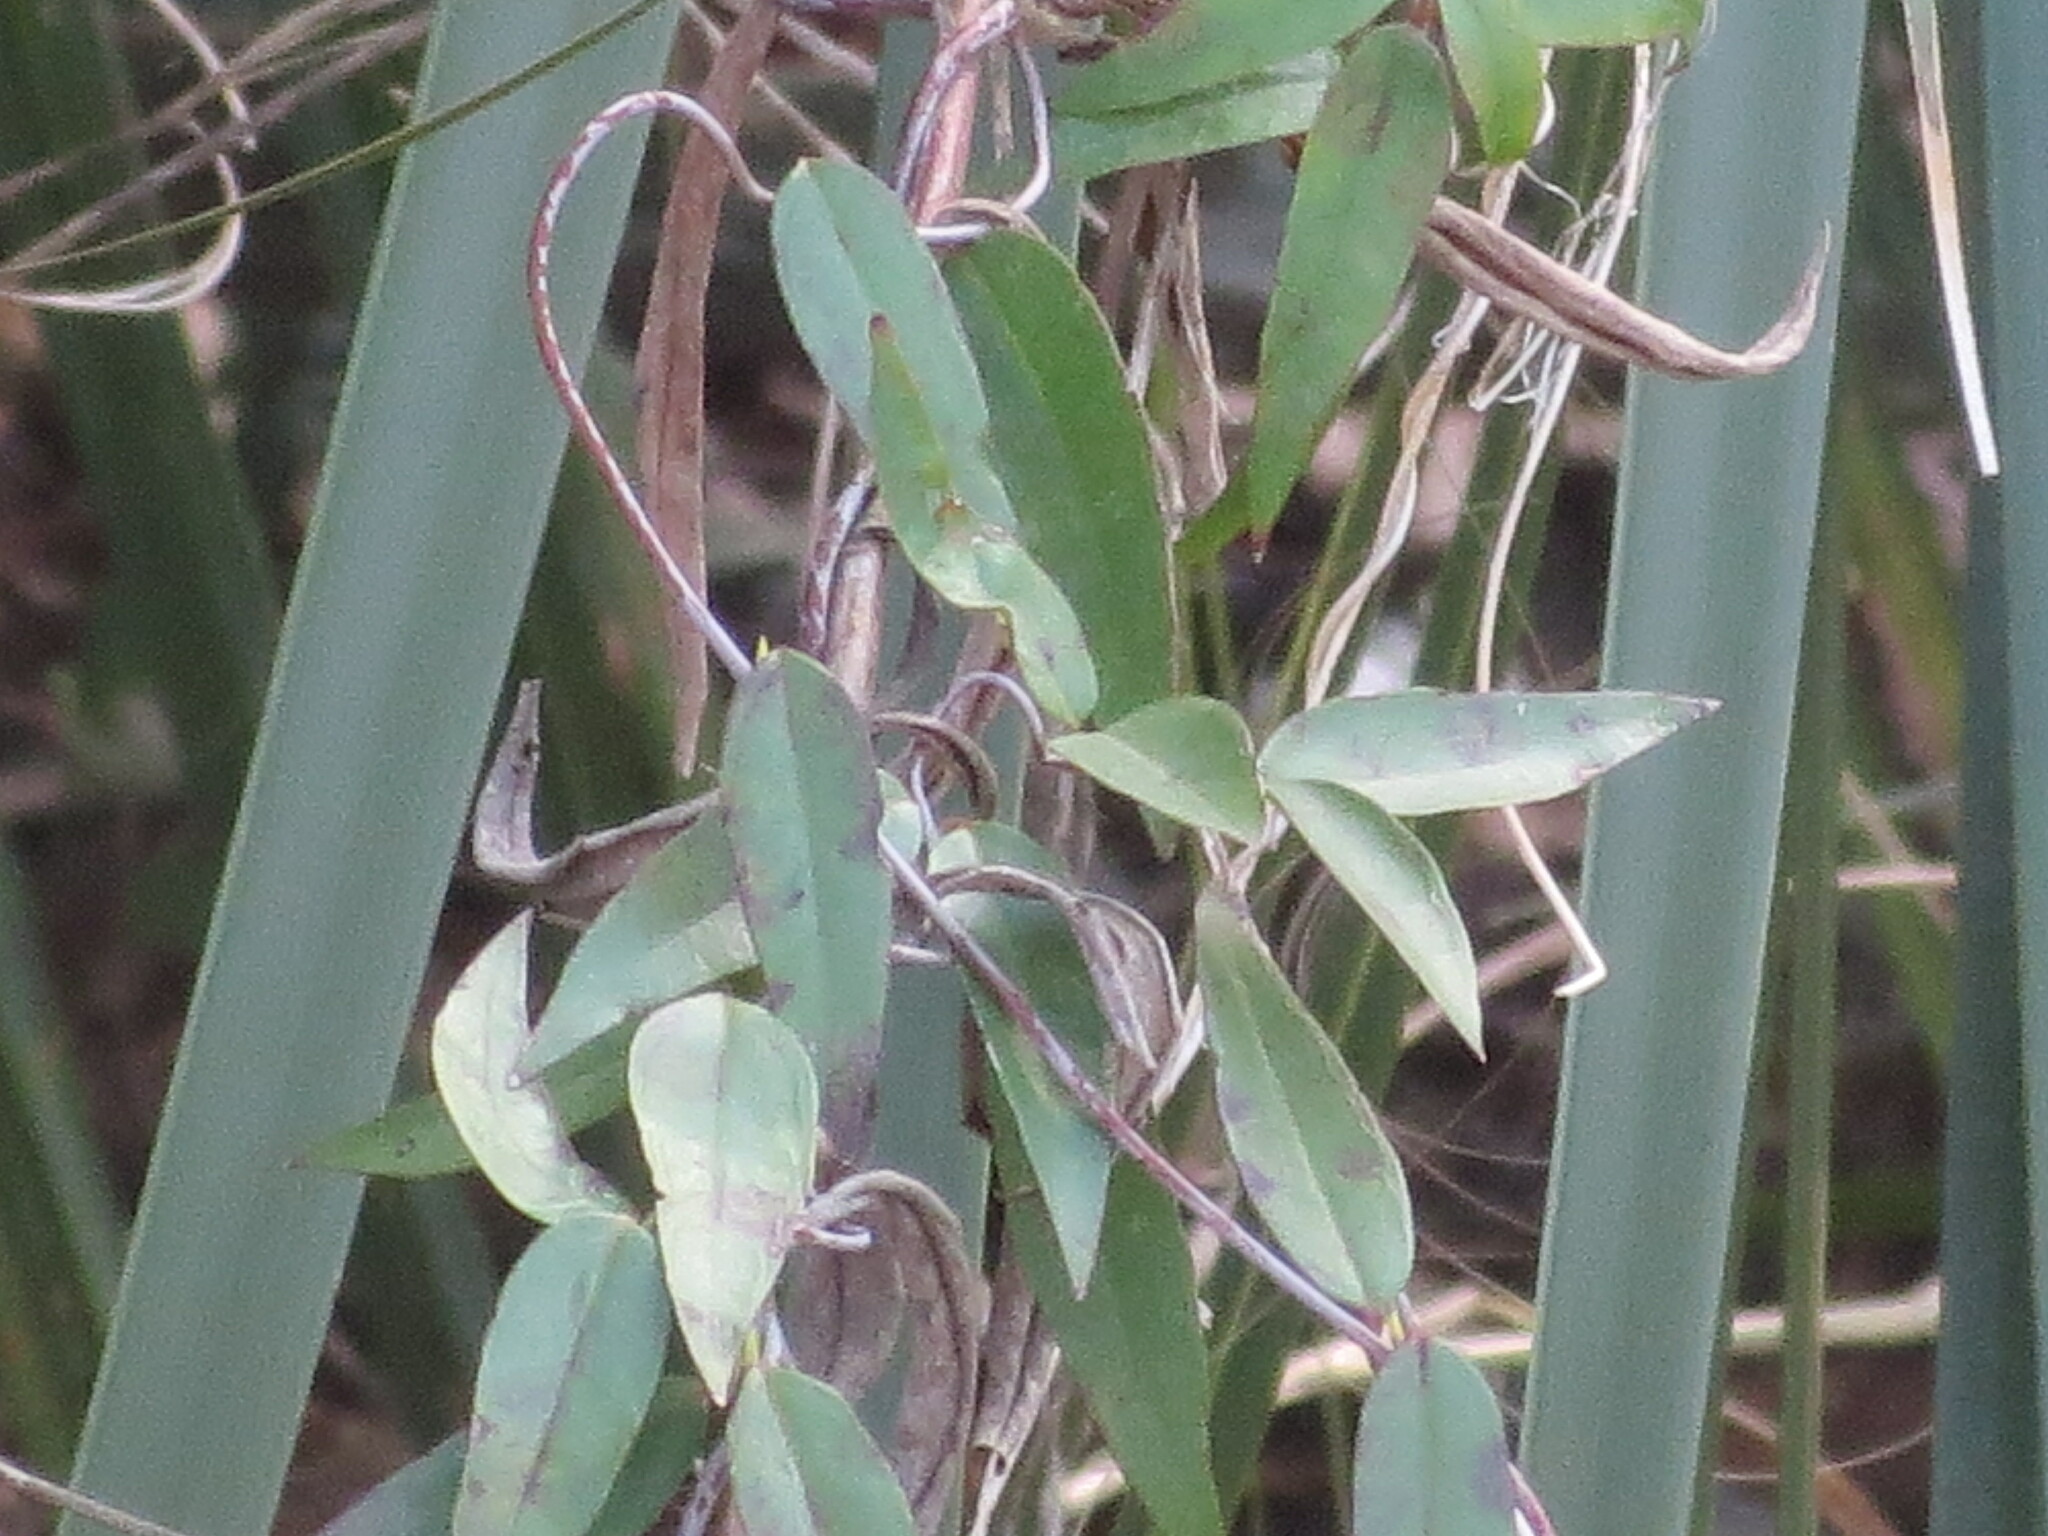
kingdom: Plantae
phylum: Tracheophyta
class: Magnoliopsida
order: Gentianales
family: Gelsemiaceae
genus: Gelsemium
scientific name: Gelsemium sempervirens
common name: Carolina-jasmine
